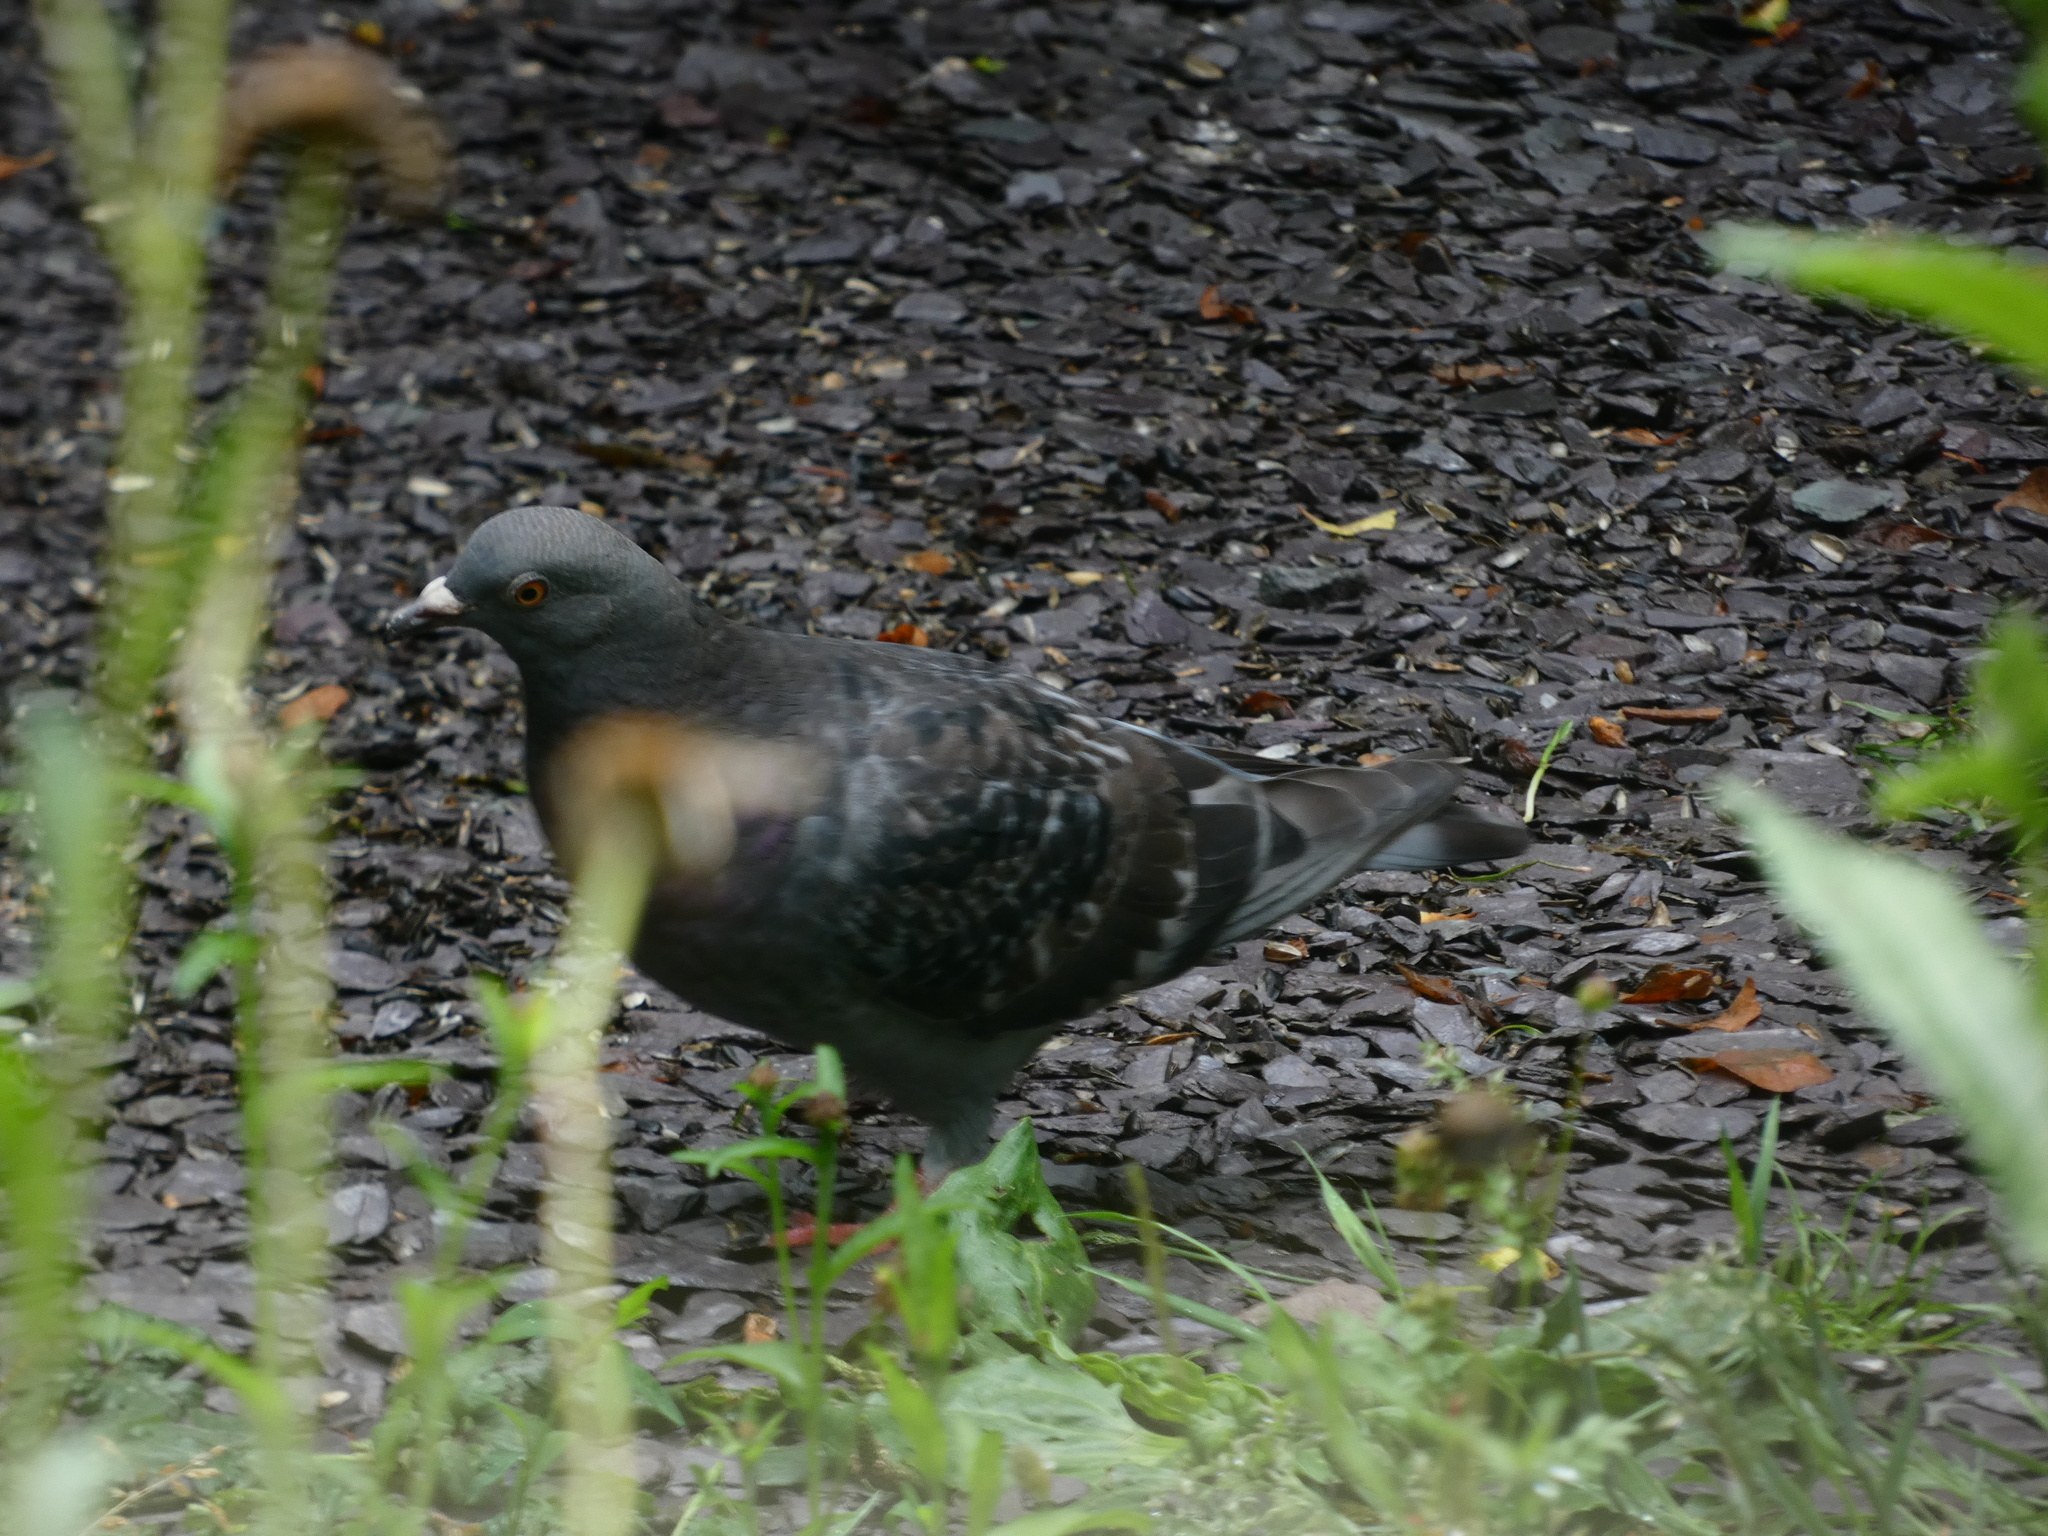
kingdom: Animalia
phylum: Chordata
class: Aves
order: Columbiformes
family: Columbidae
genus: Columba
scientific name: Columba livia
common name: Rock pigeon
